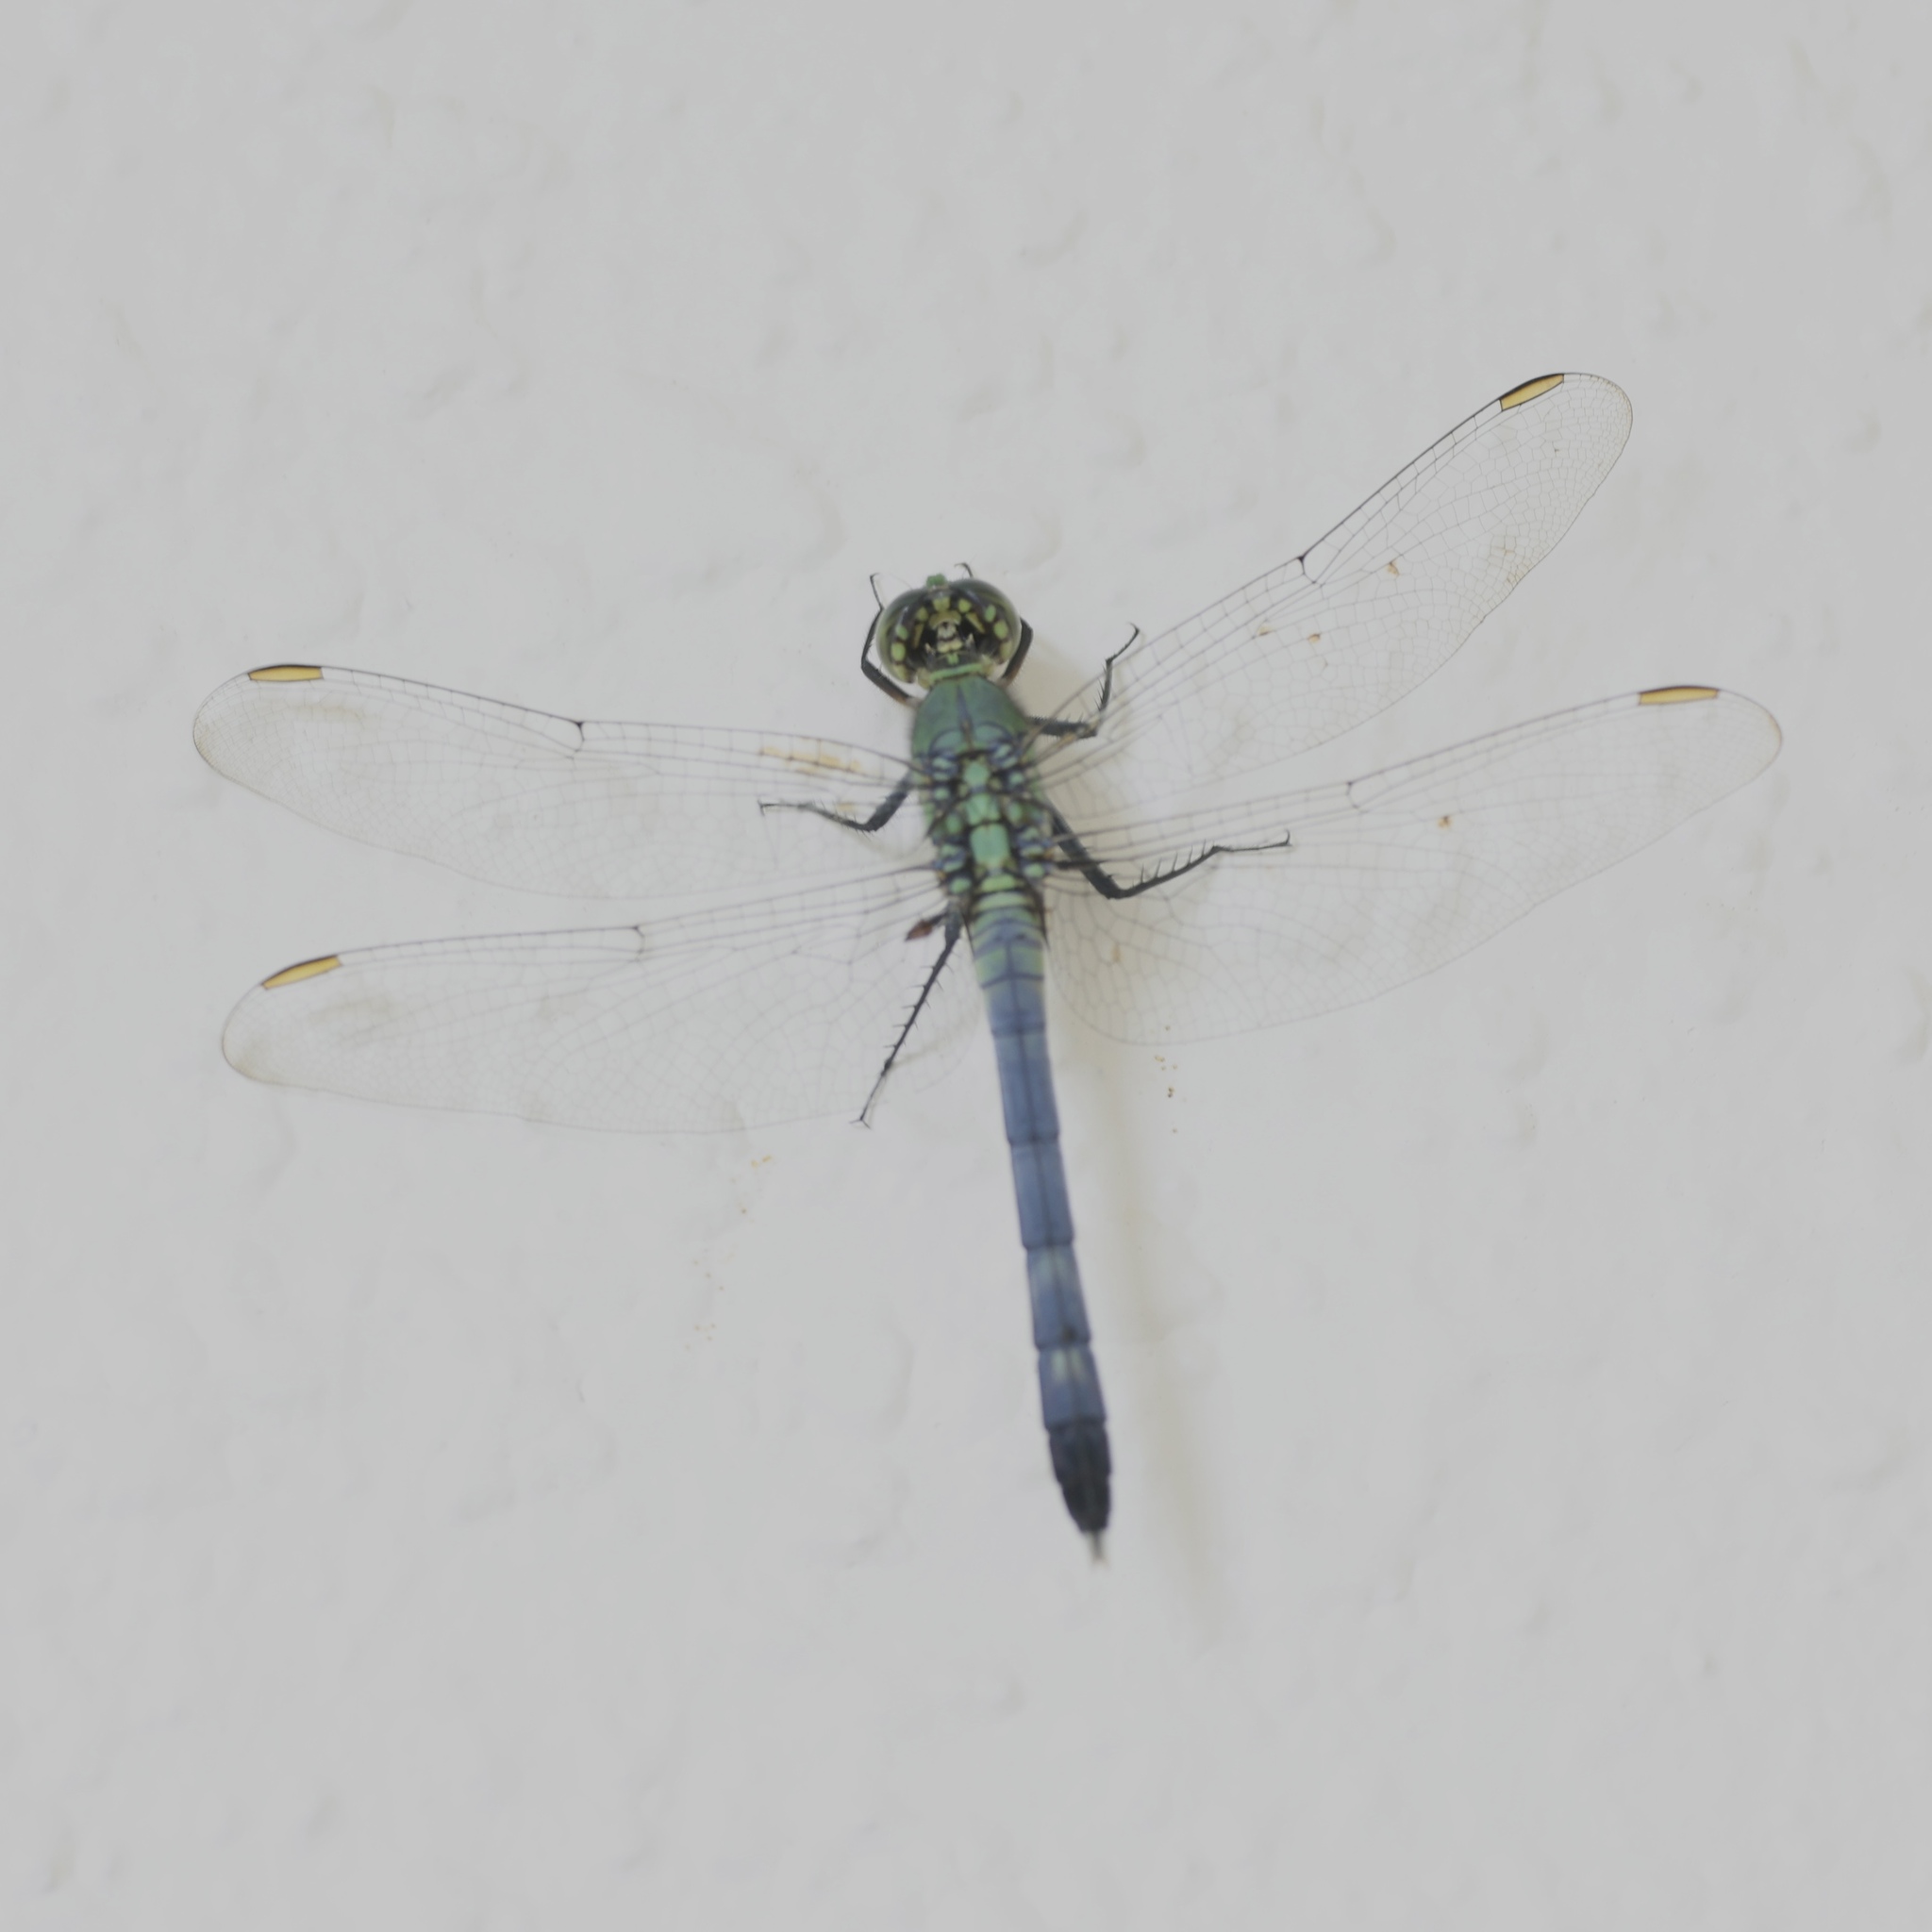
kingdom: Animalia
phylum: Arthropoda
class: Insecta
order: Odonata
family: Libellulidae
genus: Erythemis
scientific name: Erythemis simplicicollis
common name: Eastern pondhawk
